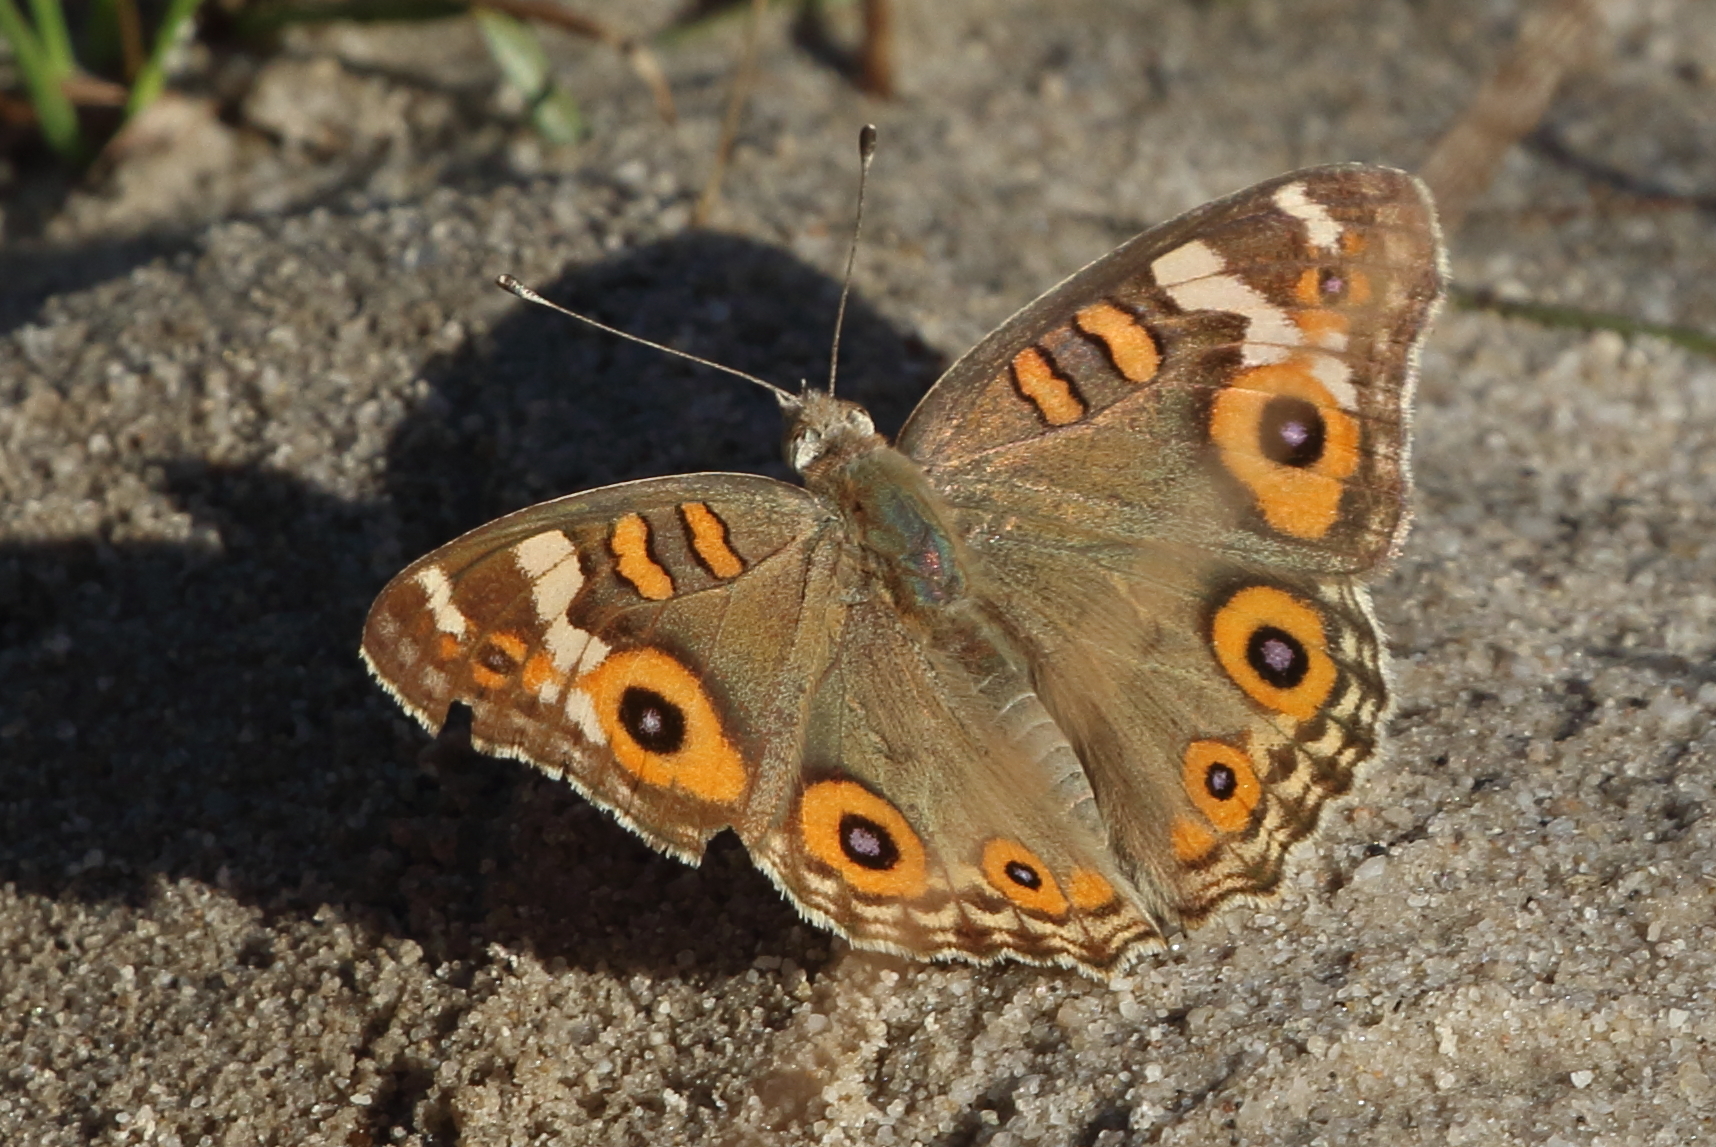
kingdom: Animalia
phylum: Arthropoda
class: Insecta
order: Lepidoptera
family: Nymphalidae
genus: Junonia
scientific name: Junonia villida
